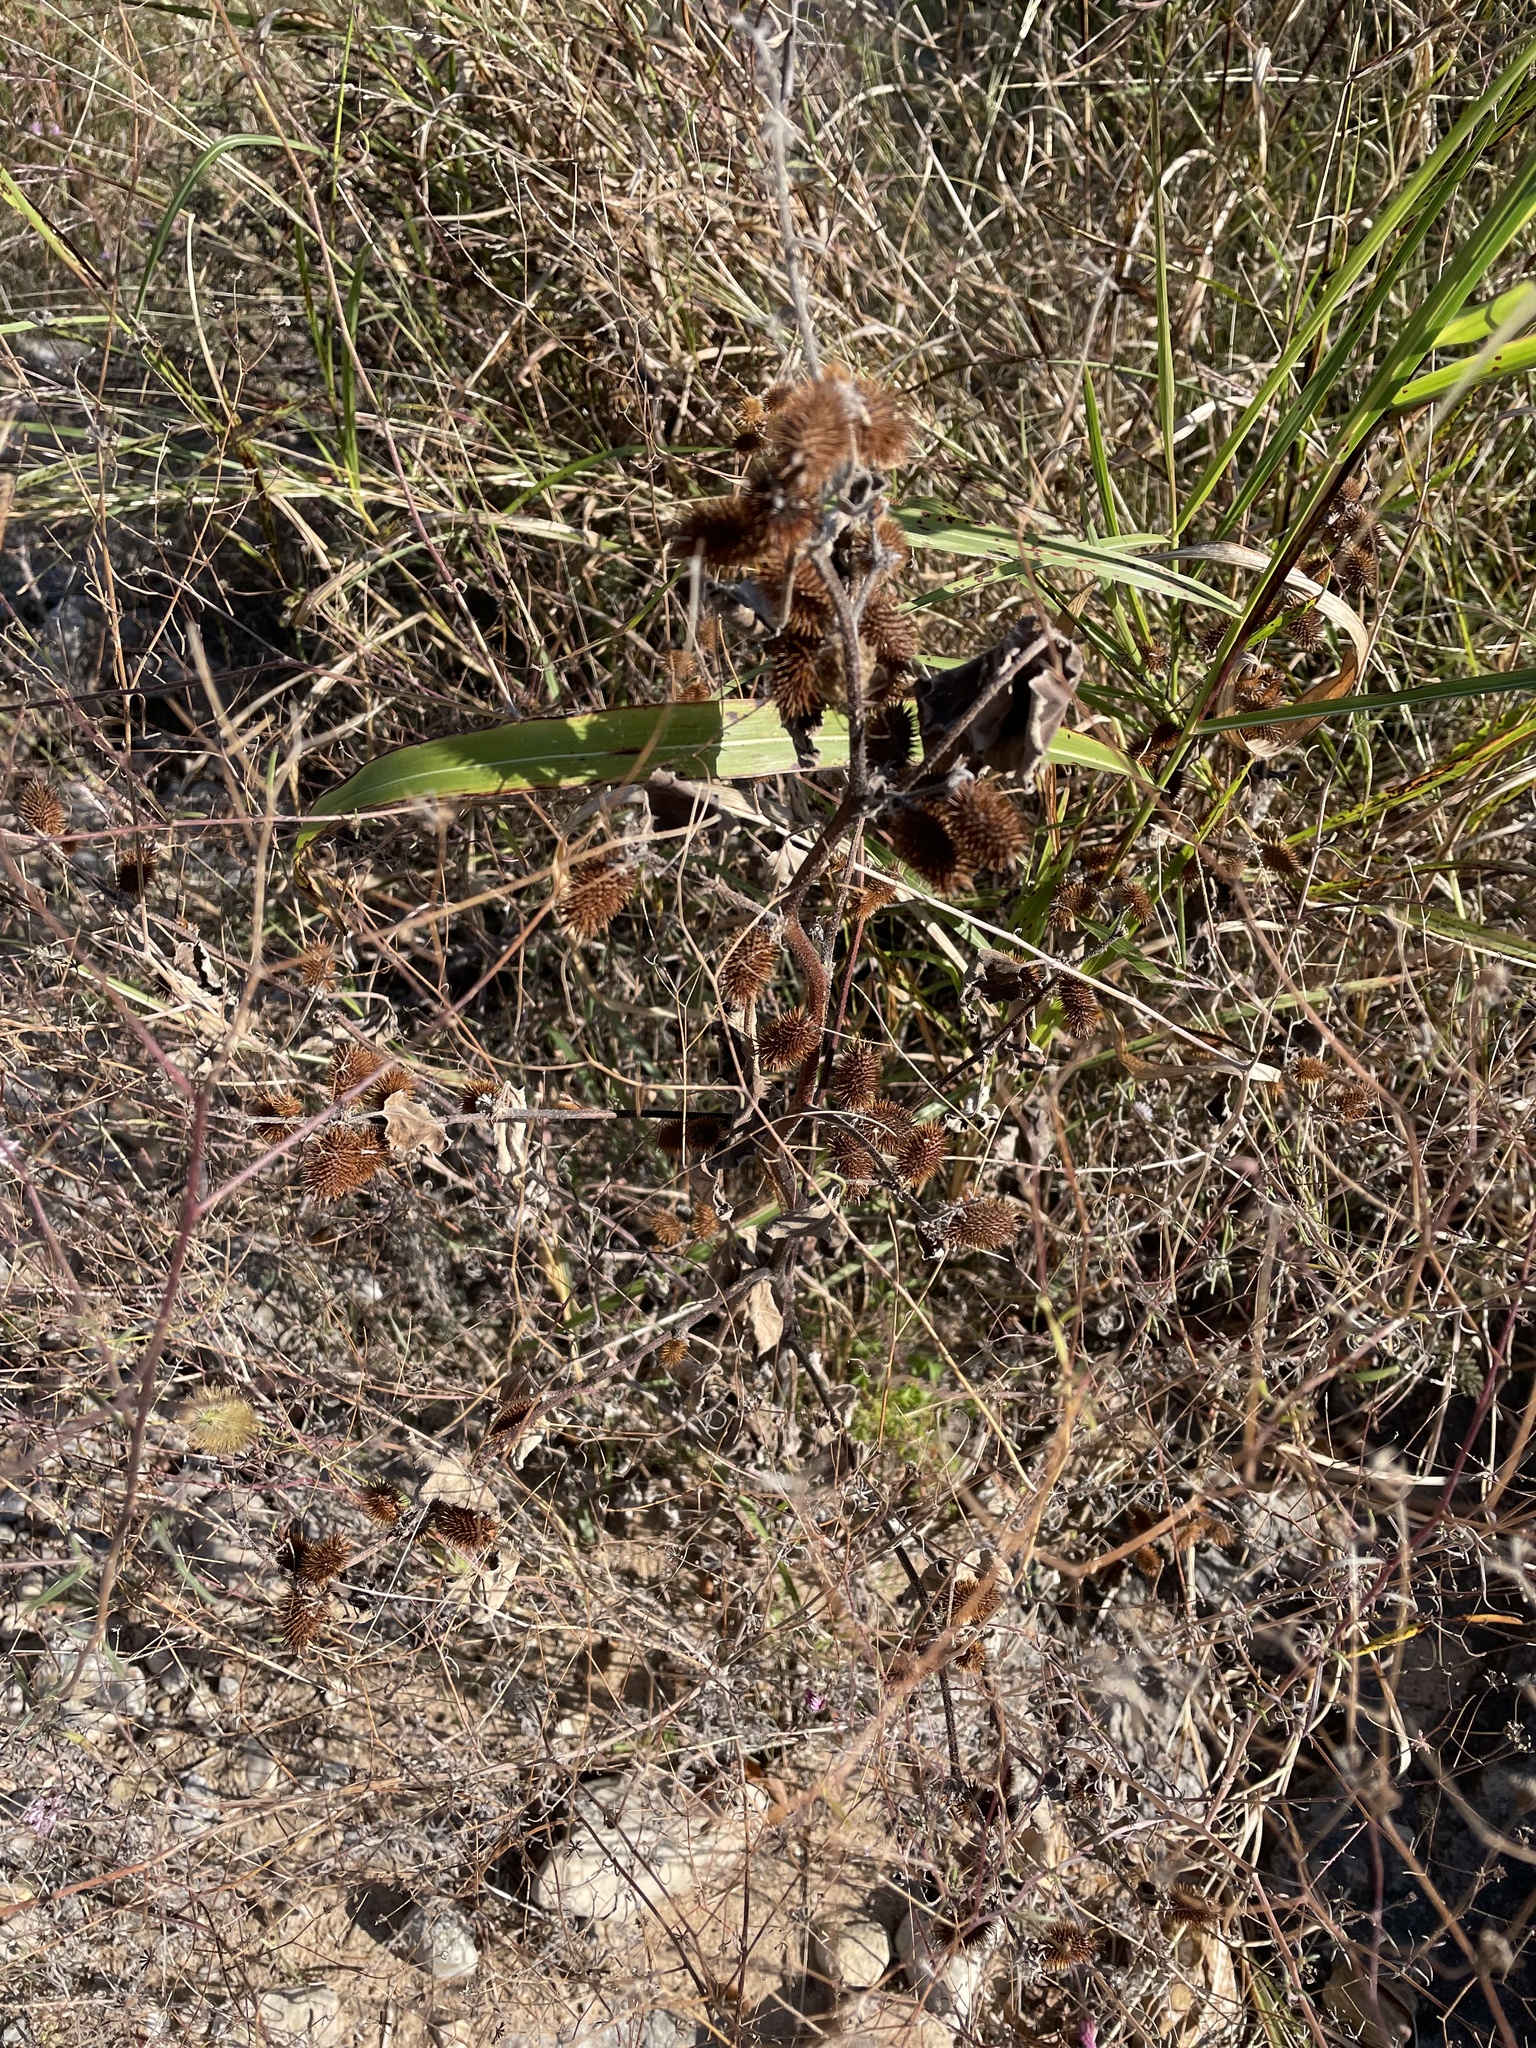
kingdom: Plantae
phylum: Tracheophyta
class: Magnoliopsida
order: Asterales
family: Asteraceae
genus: Xanthium
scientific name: Xanthium strumarium
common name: Rough cocklebur
